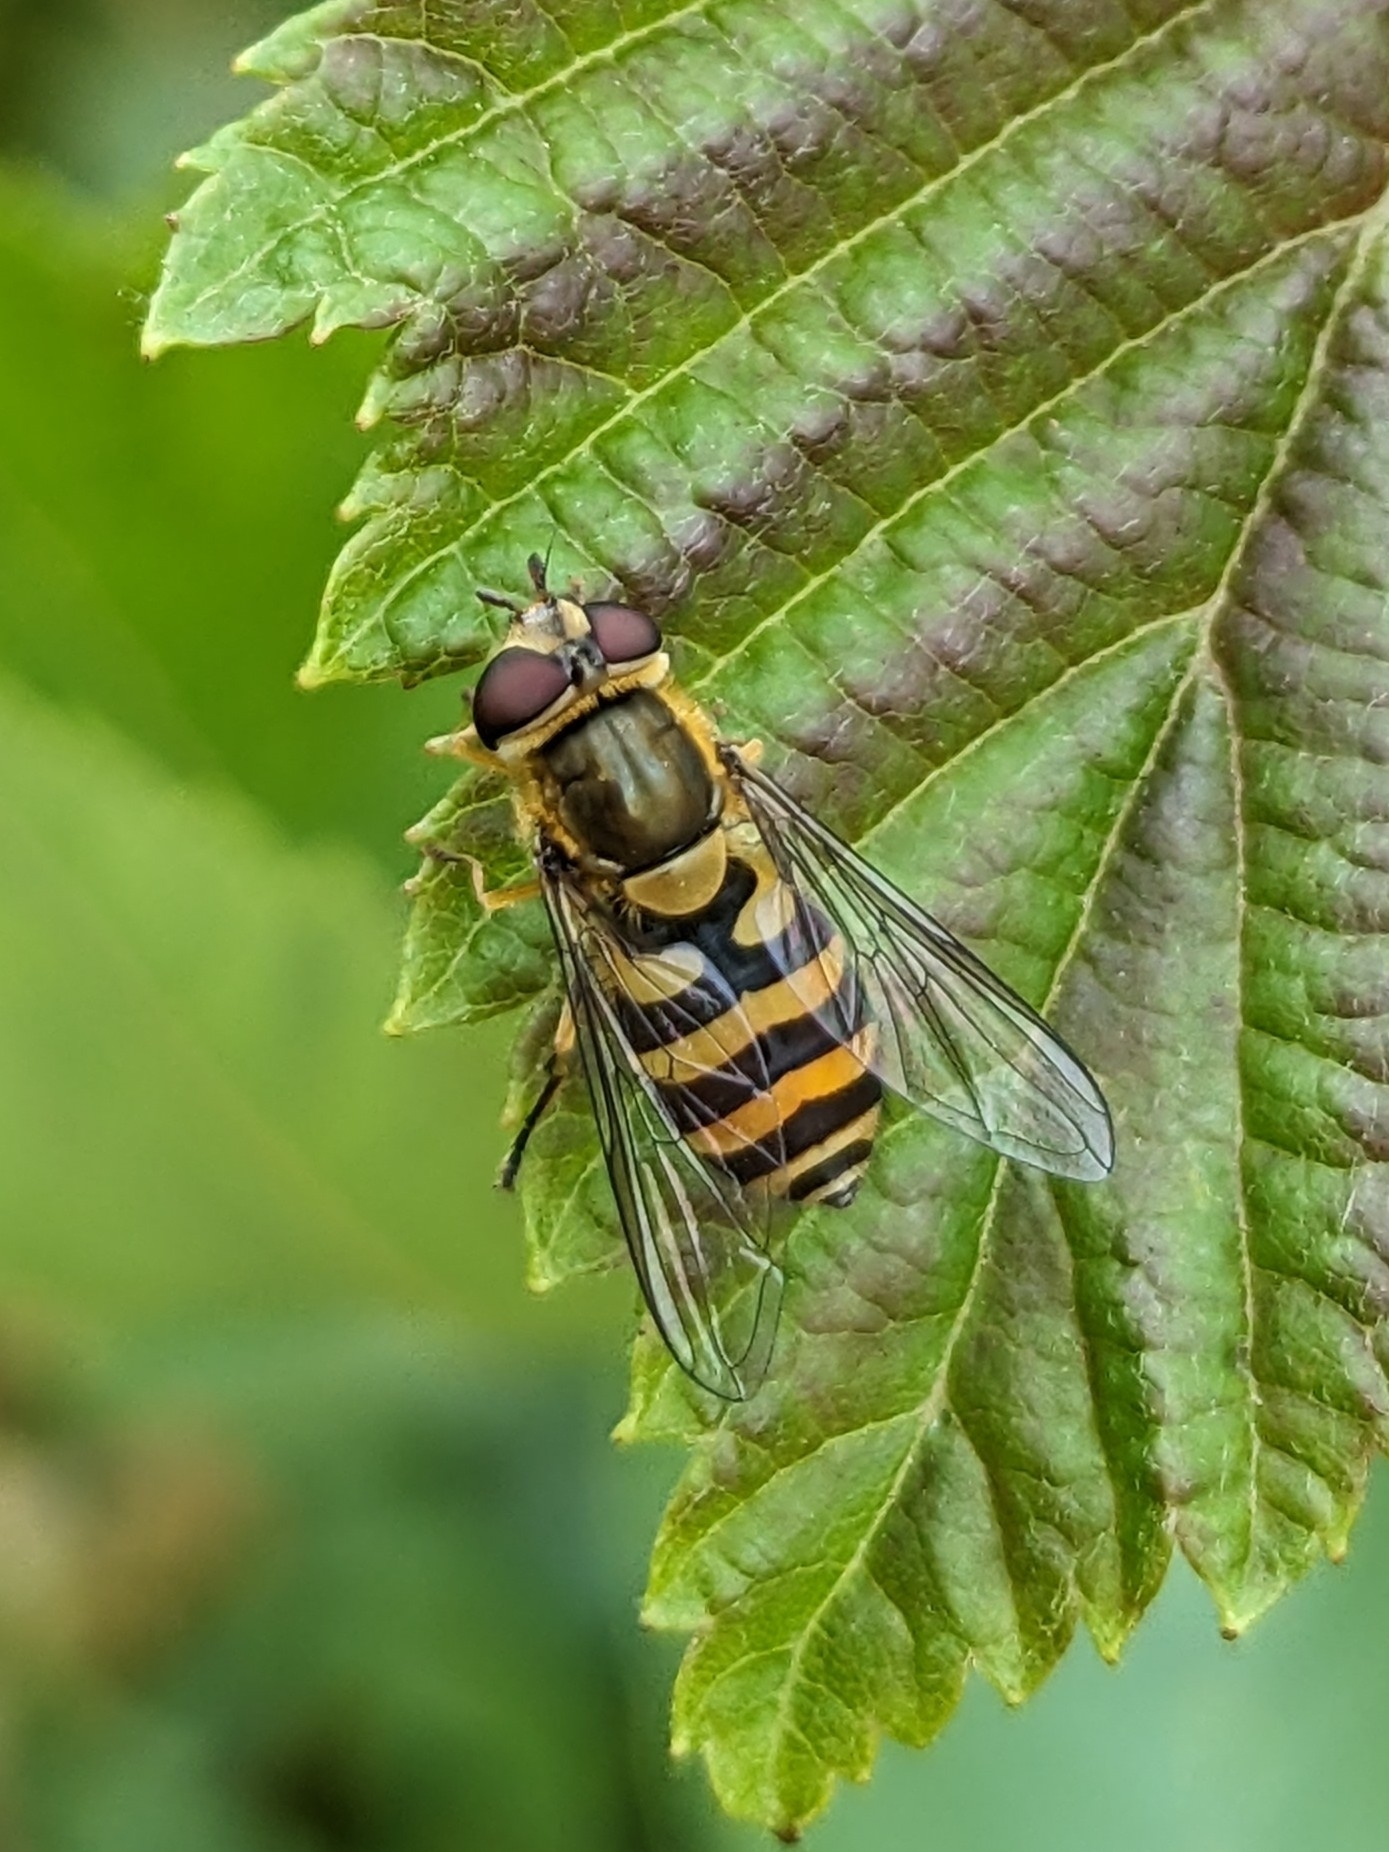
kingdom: Animalia
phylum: Arthropoda
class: Insecta
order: Diptera
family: Syrphidae
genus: Syrphus
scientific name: Syrphus
